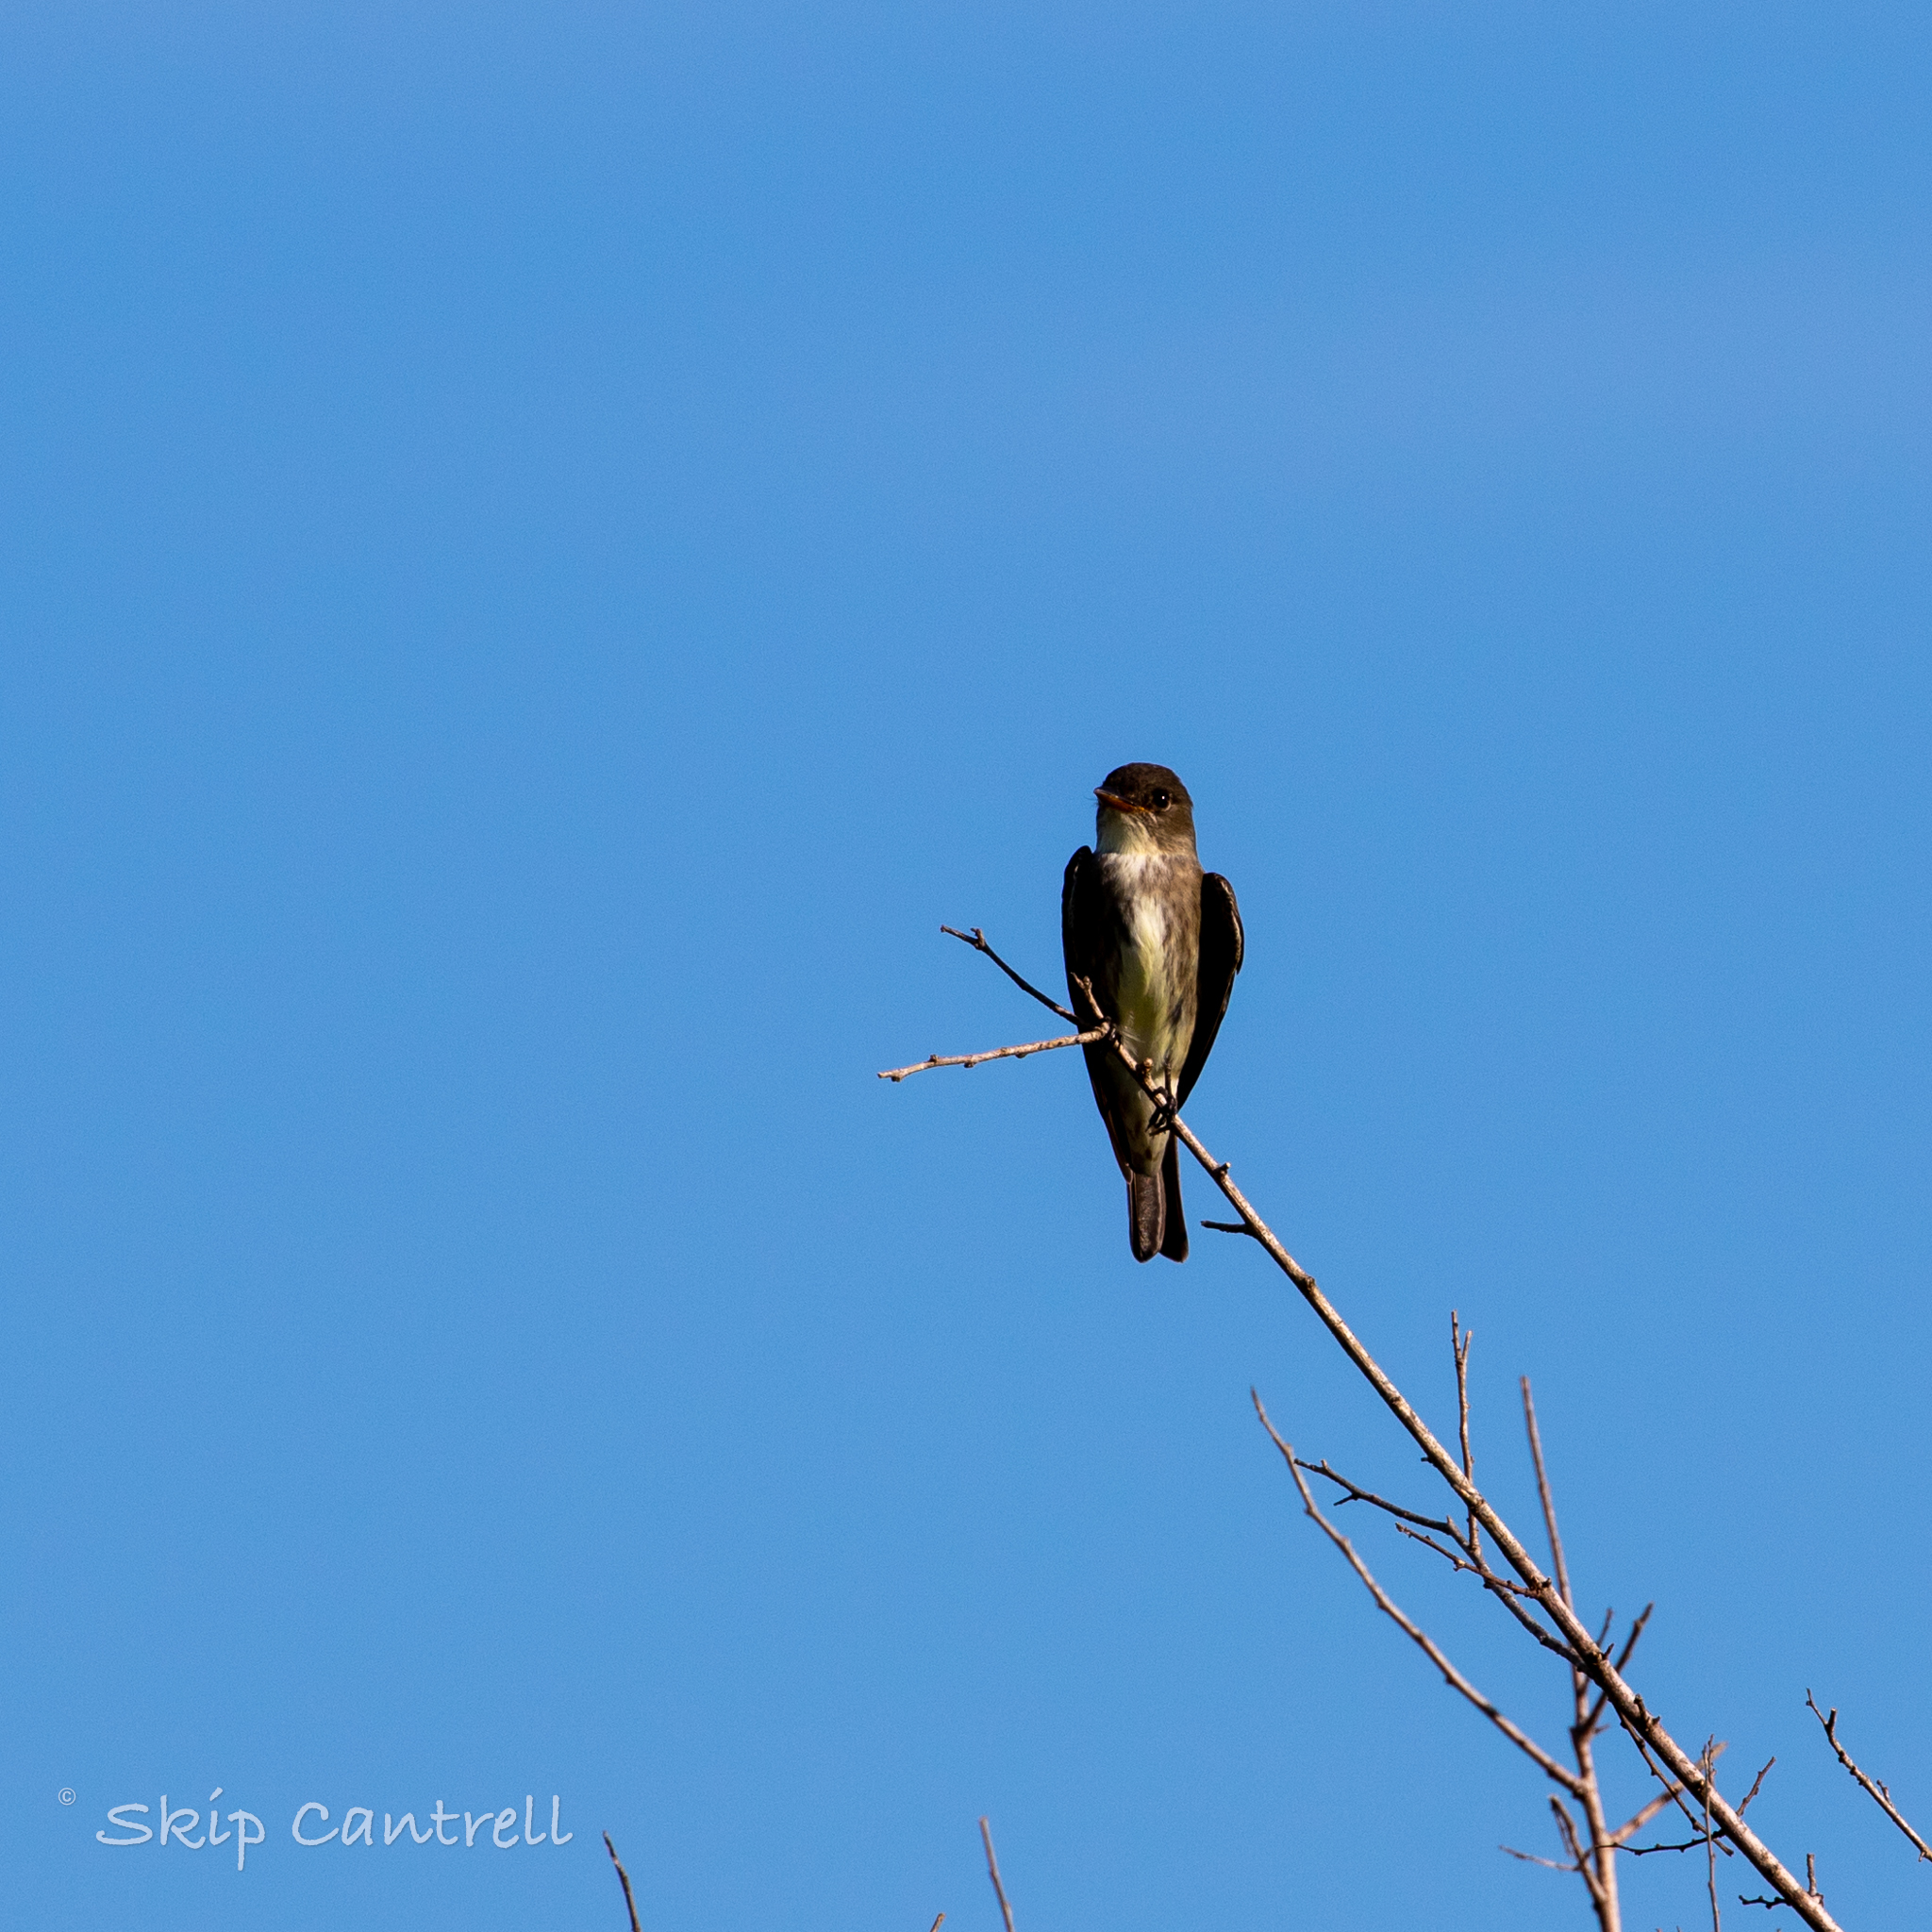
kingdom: Animalia
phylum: Chordata
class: Aves
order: Passeriformes
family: Tyrannidae
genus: Contopus
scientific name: Contopus cooperi
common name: Olive-sided flycatcher
